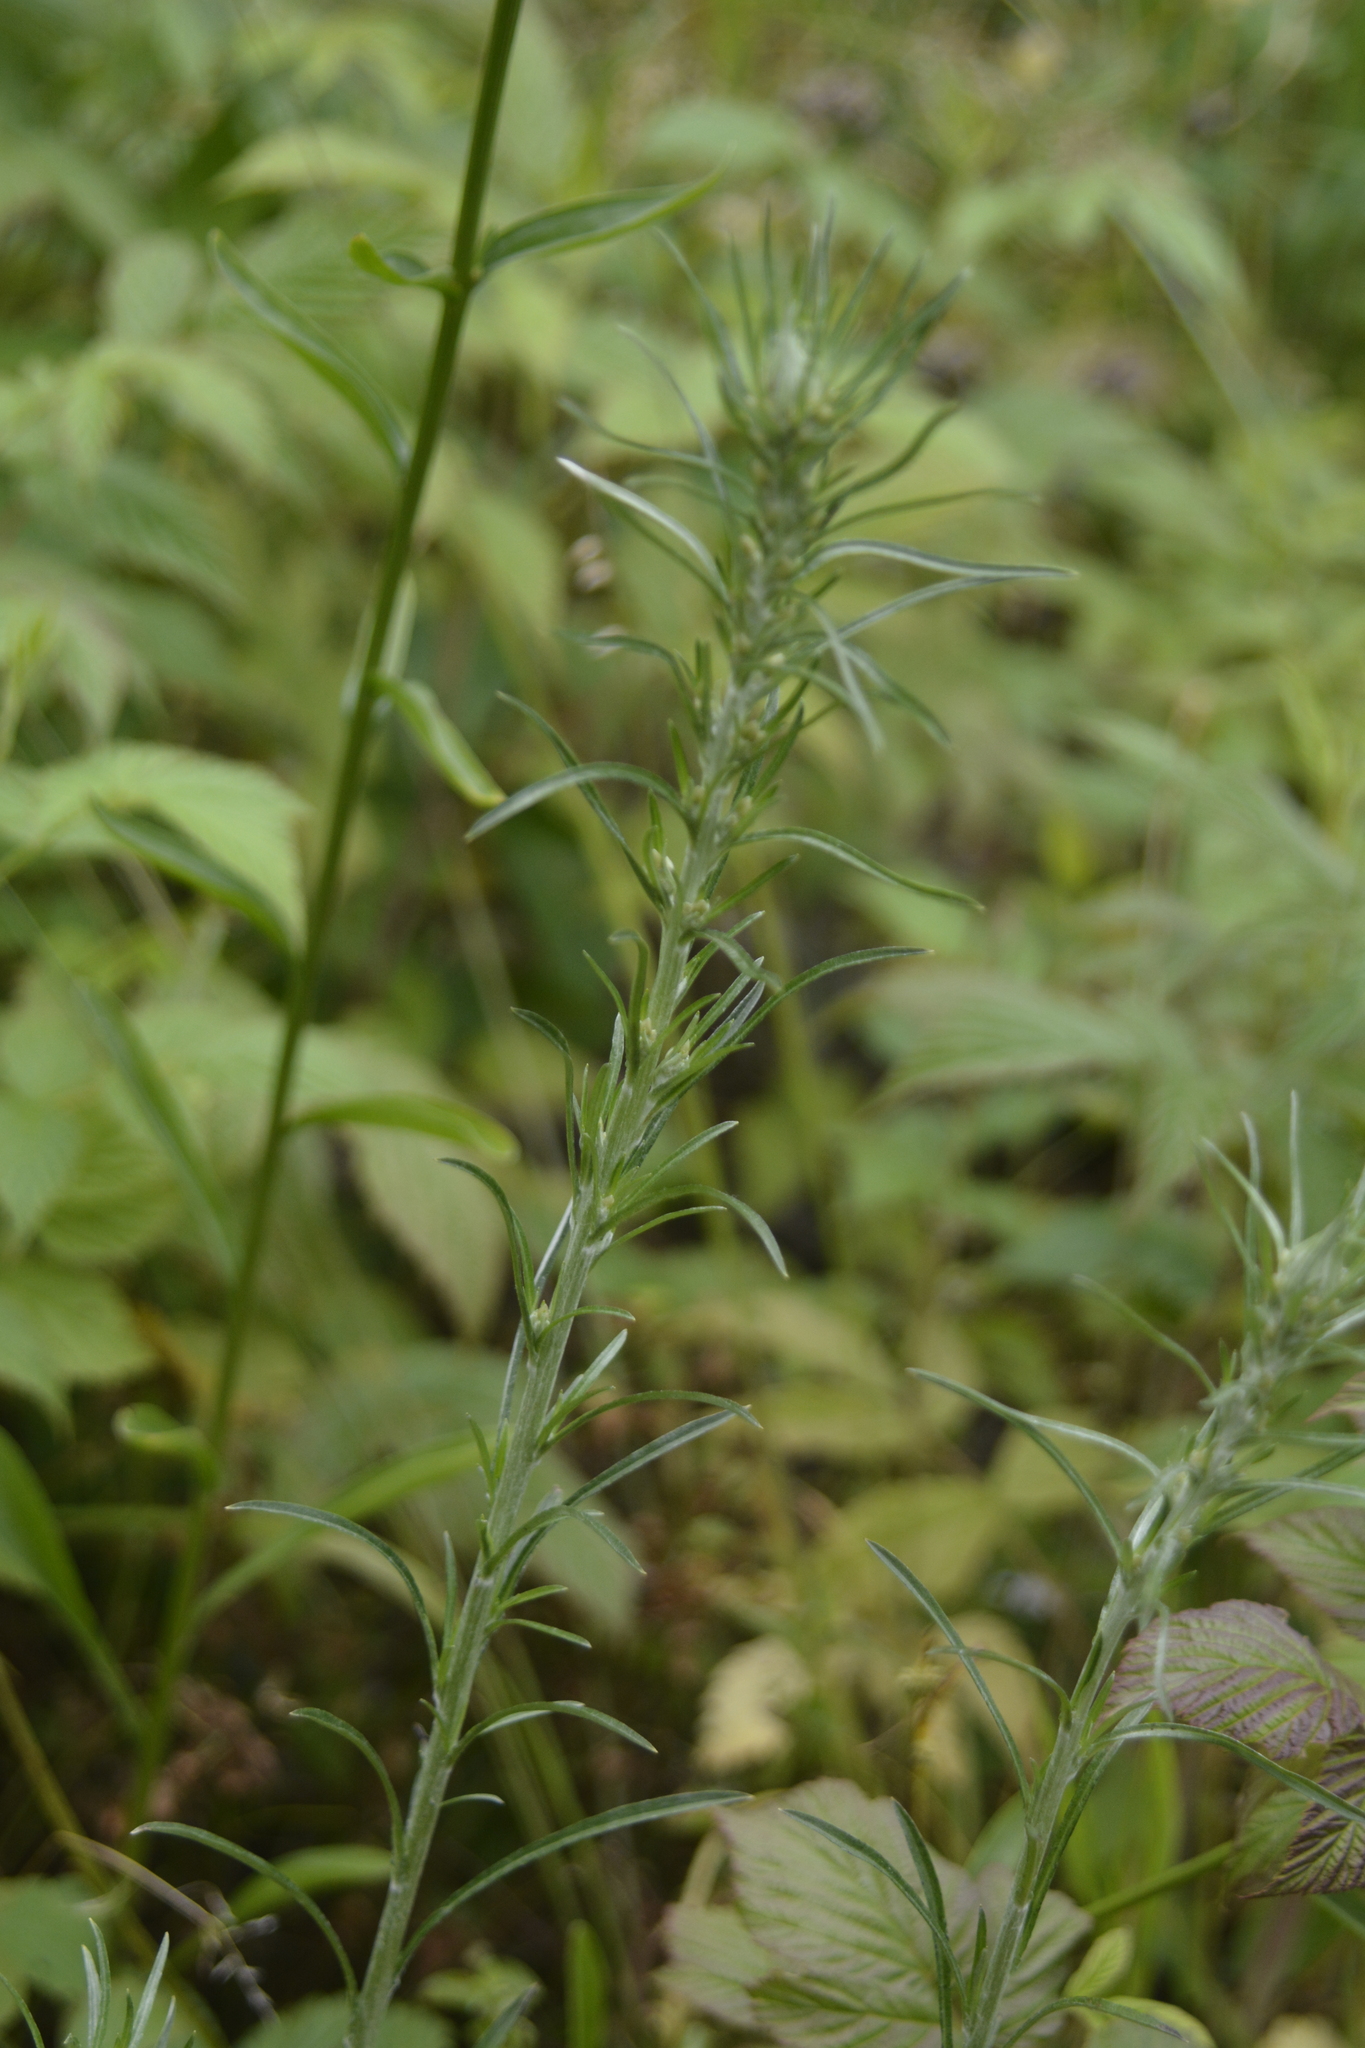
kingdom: Plantae
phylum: Tracheophyta
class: Magnoliopsida
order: Asterales
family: Asteraceae
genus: Omalotheca
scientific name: Omalotheca sylvatica
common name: Heath cudweed
